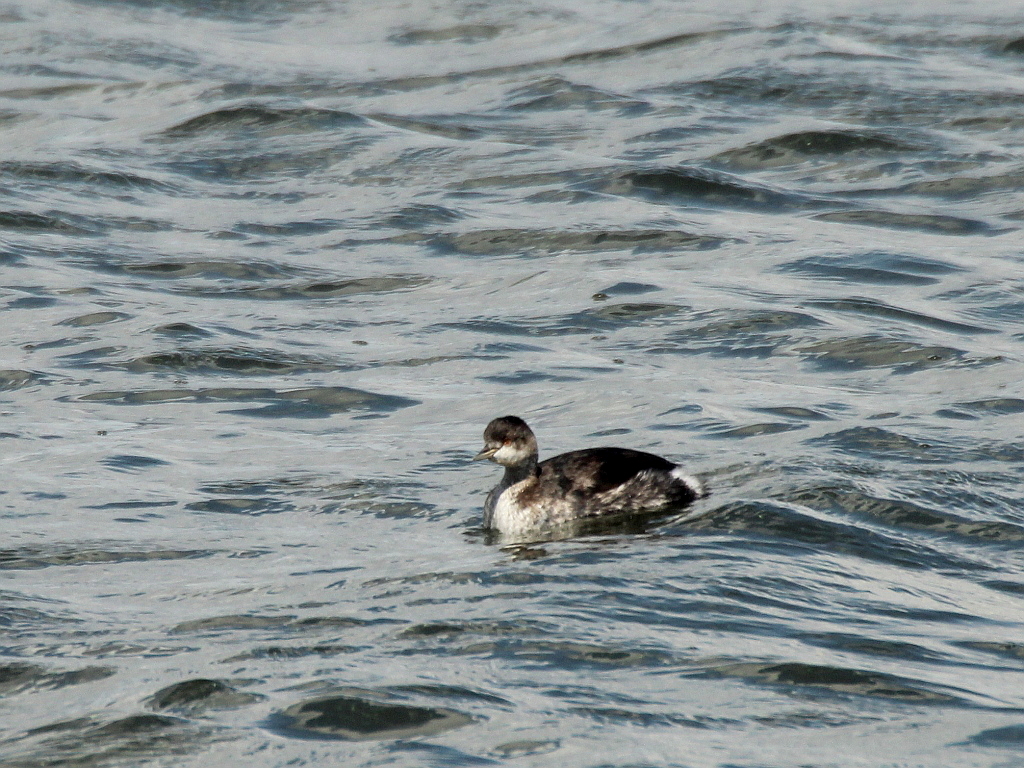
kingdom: Animalia
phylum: Chordata
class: Aves
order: Podicipediformes
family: Podicipedidae
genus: Podiceps
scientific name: Podiceps nigricollis
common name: Black-necked grebe
